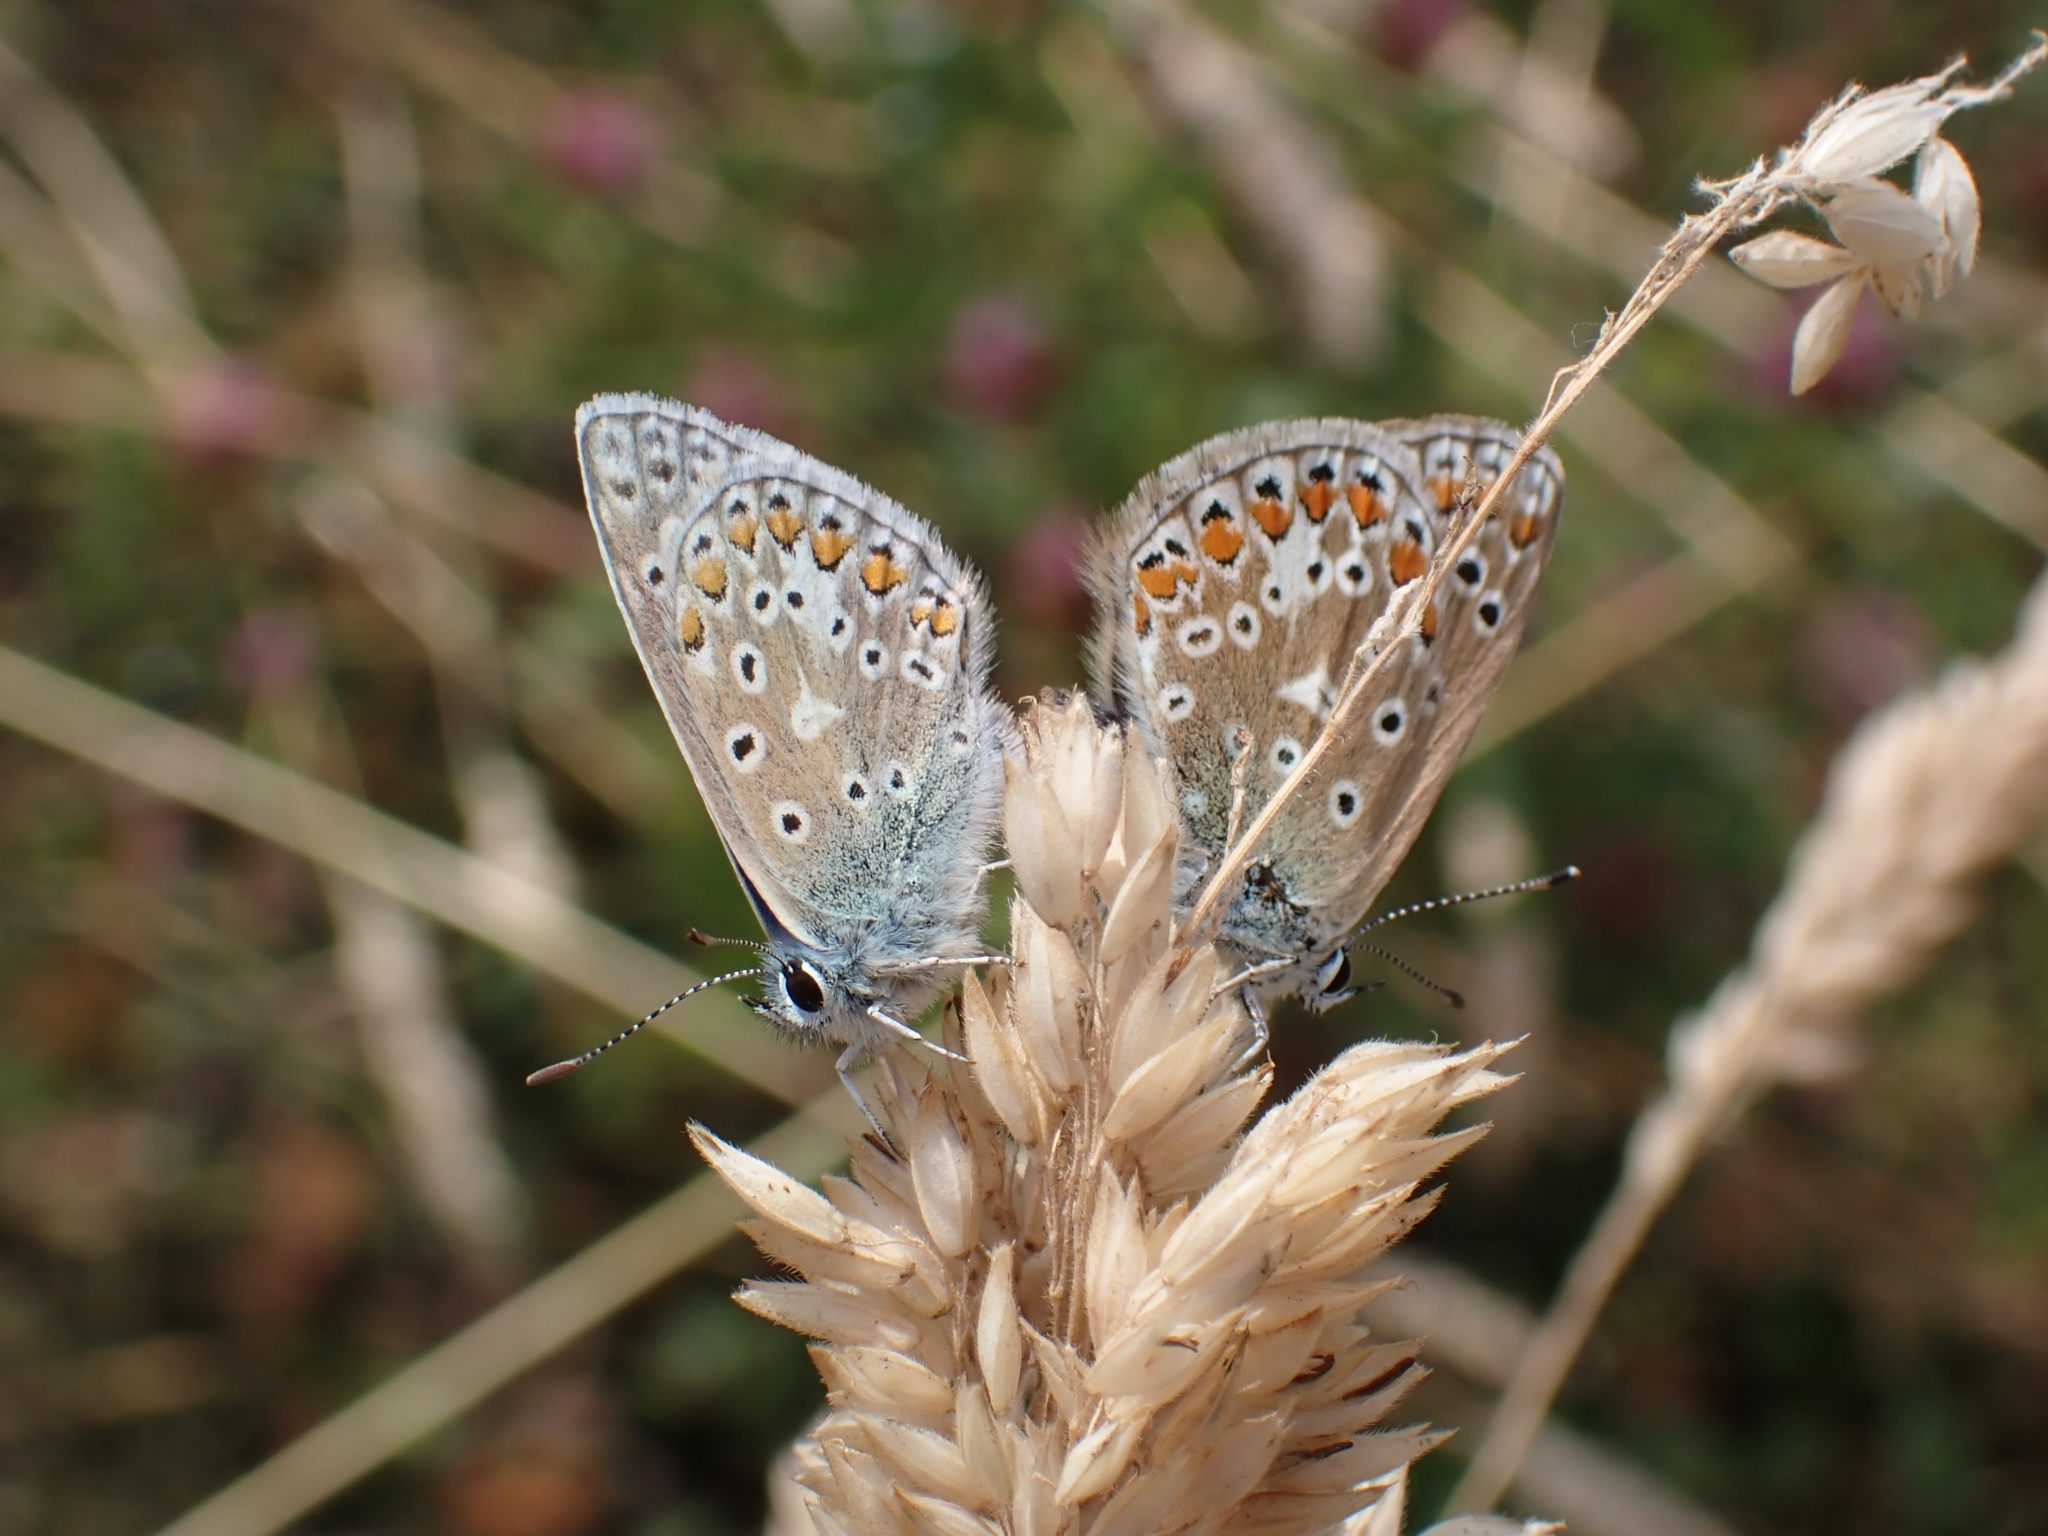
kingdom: Animalia
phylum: Arthropoda
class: Insecta
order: Lepidoptera
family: Lycaenidae
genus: Polyommatus
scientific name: Polyommatus icarus
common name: Common blue
